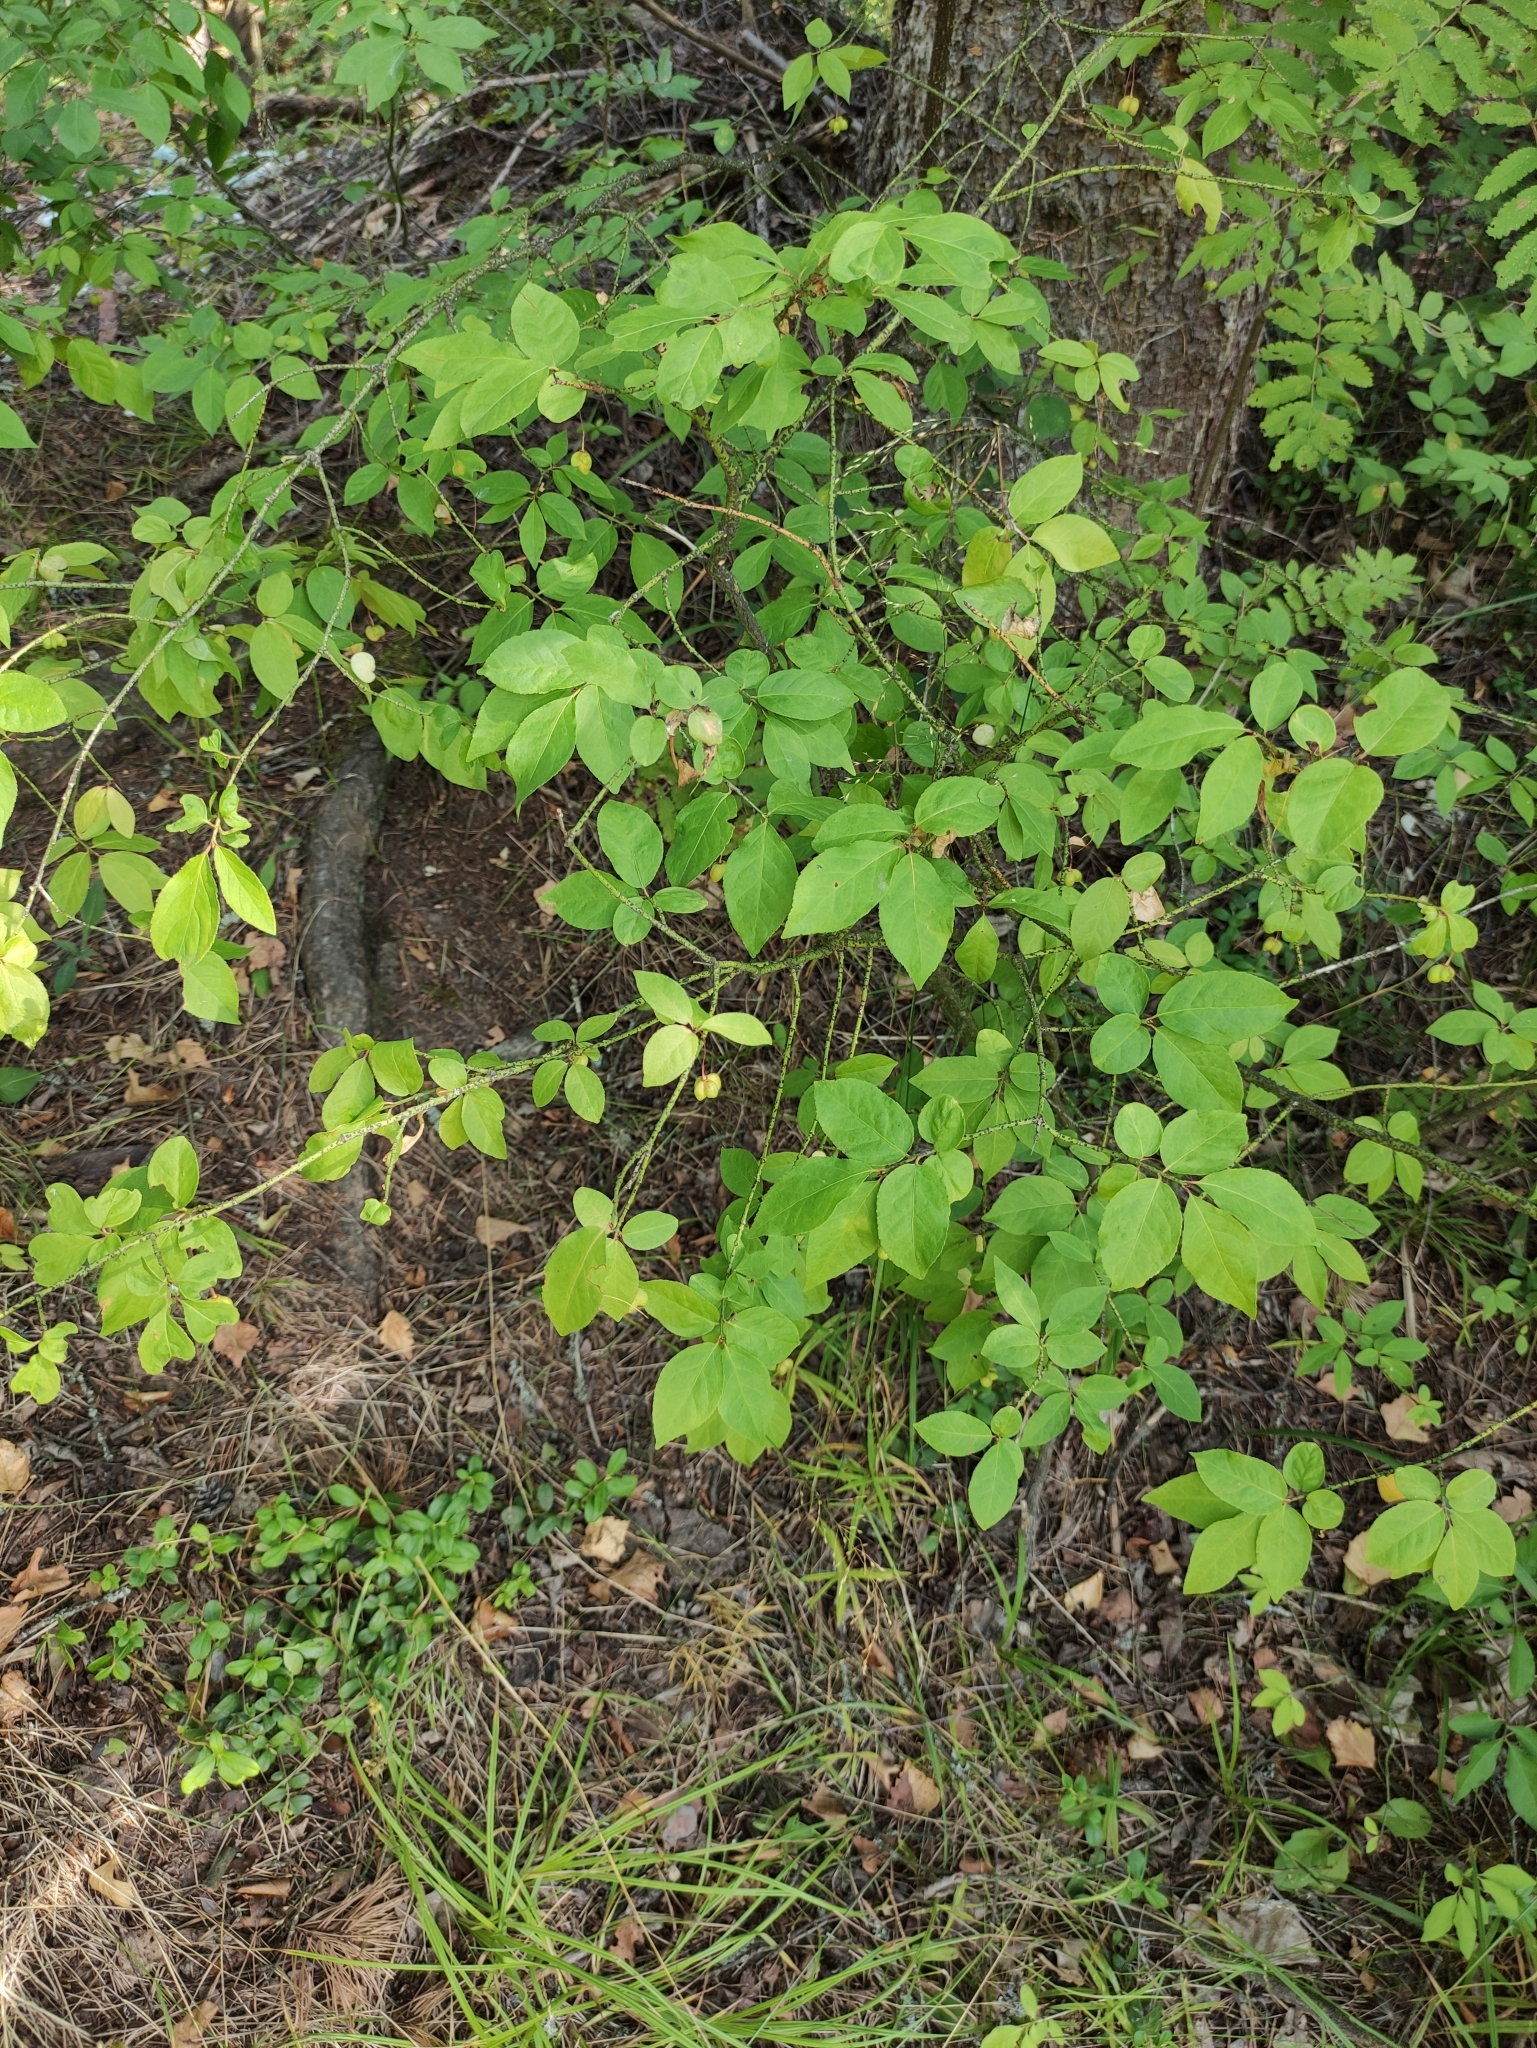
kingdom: Plantae
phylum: Tracheophyta
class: Magnoliopsida
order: Celastrales
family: Celastraceae
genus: Euonymus
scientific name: Euonymus verrucosus
